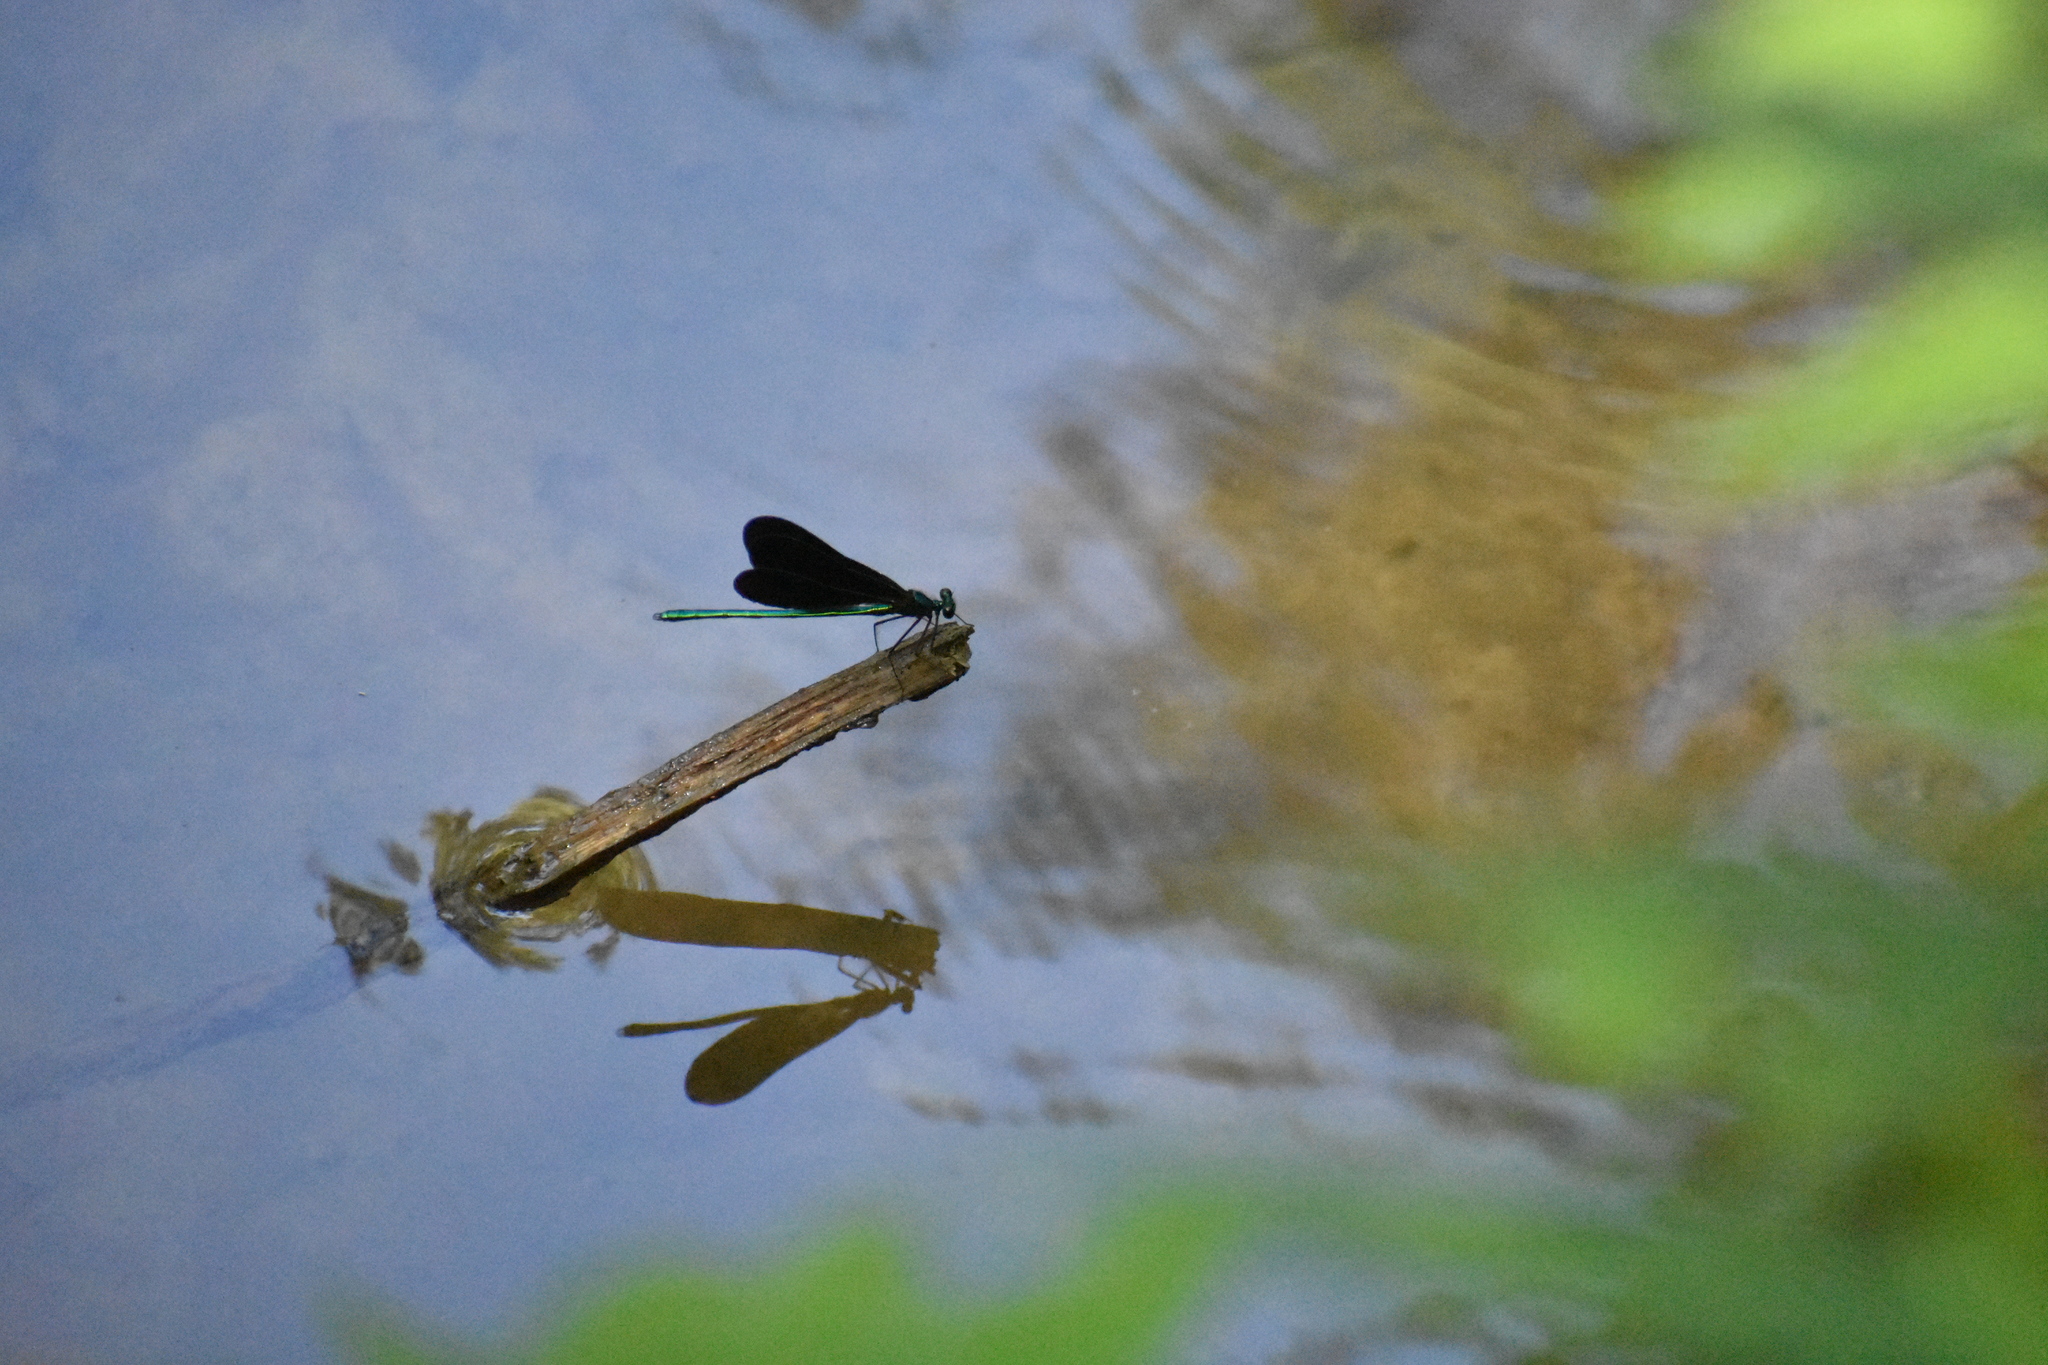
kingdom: Animalia
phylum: Arthropoda
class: Insecta
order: Odonata
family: Calopterygidae
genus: Calopteryx
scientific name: Calopteryx maculata
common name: Ebony jewelwing
